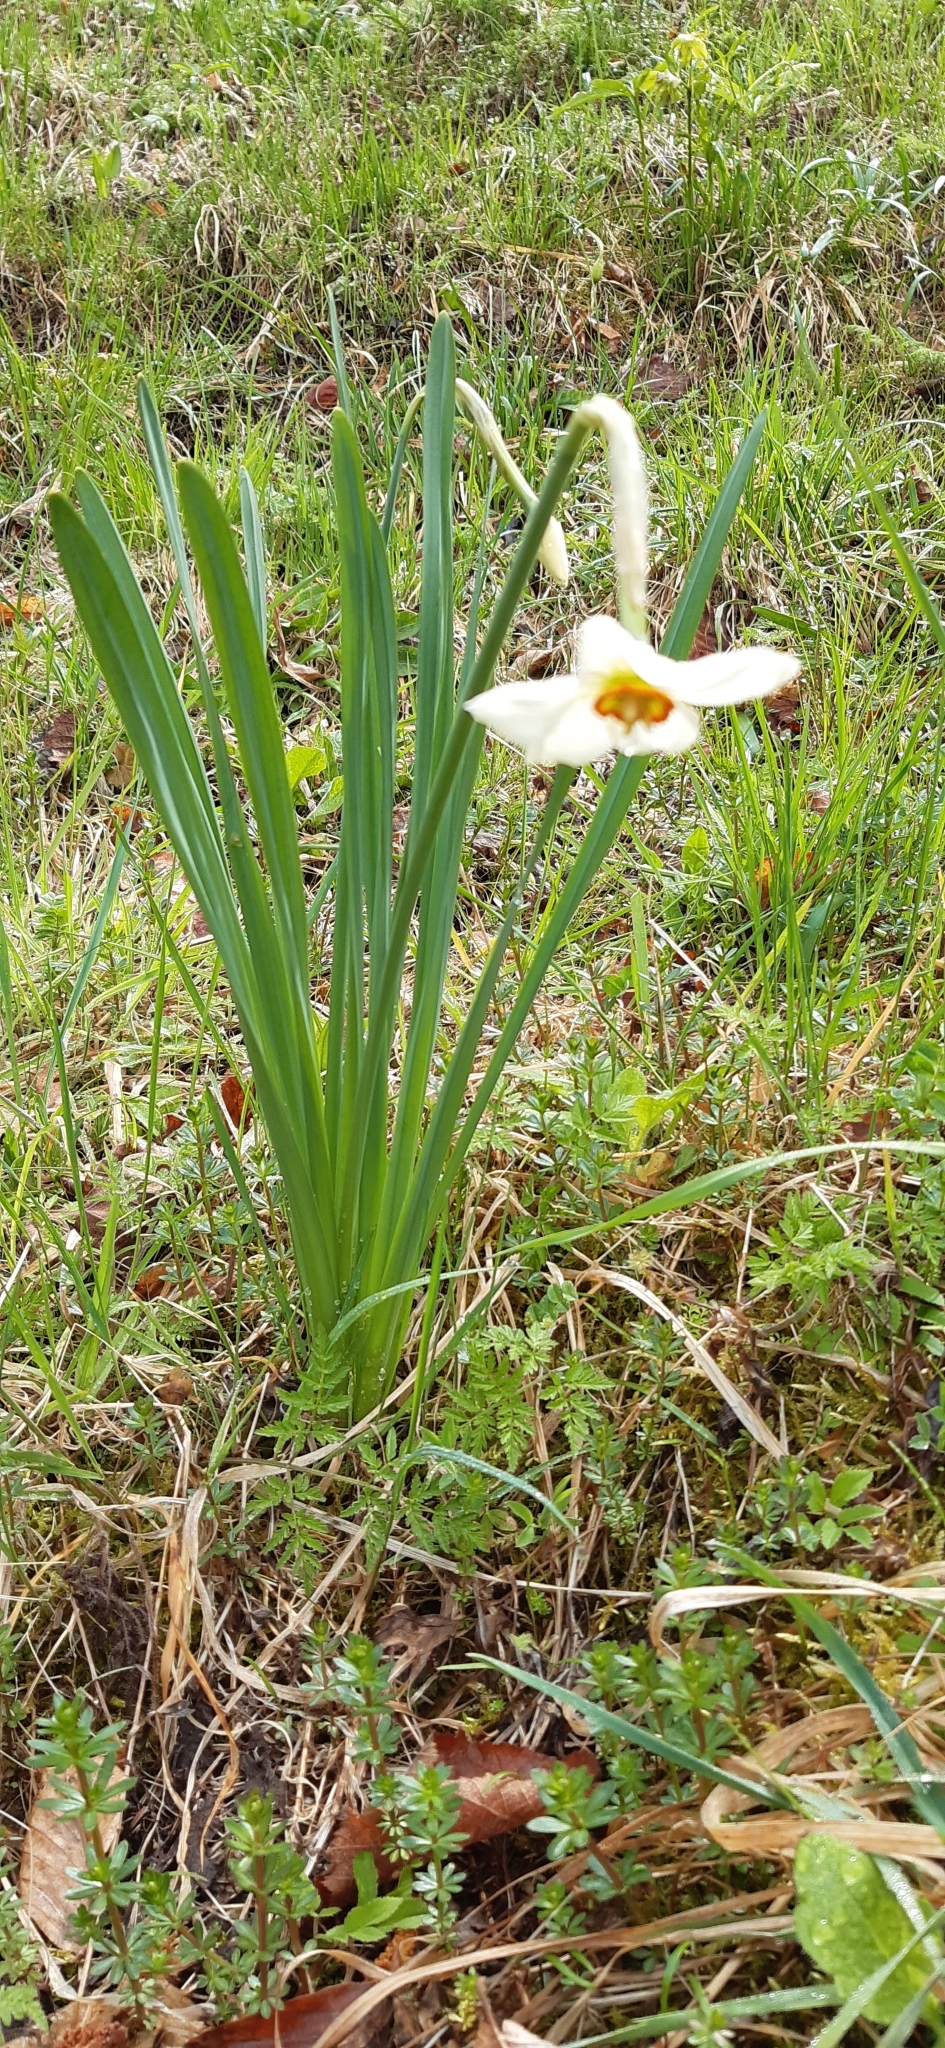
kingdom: Plantae
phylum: Tracheophyta
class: Liliopsida
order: Asparagales
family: Amaryllidaceae
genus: Narcissus
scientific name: Narcissus poeticus
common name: Pheasant's-eye daffodil
